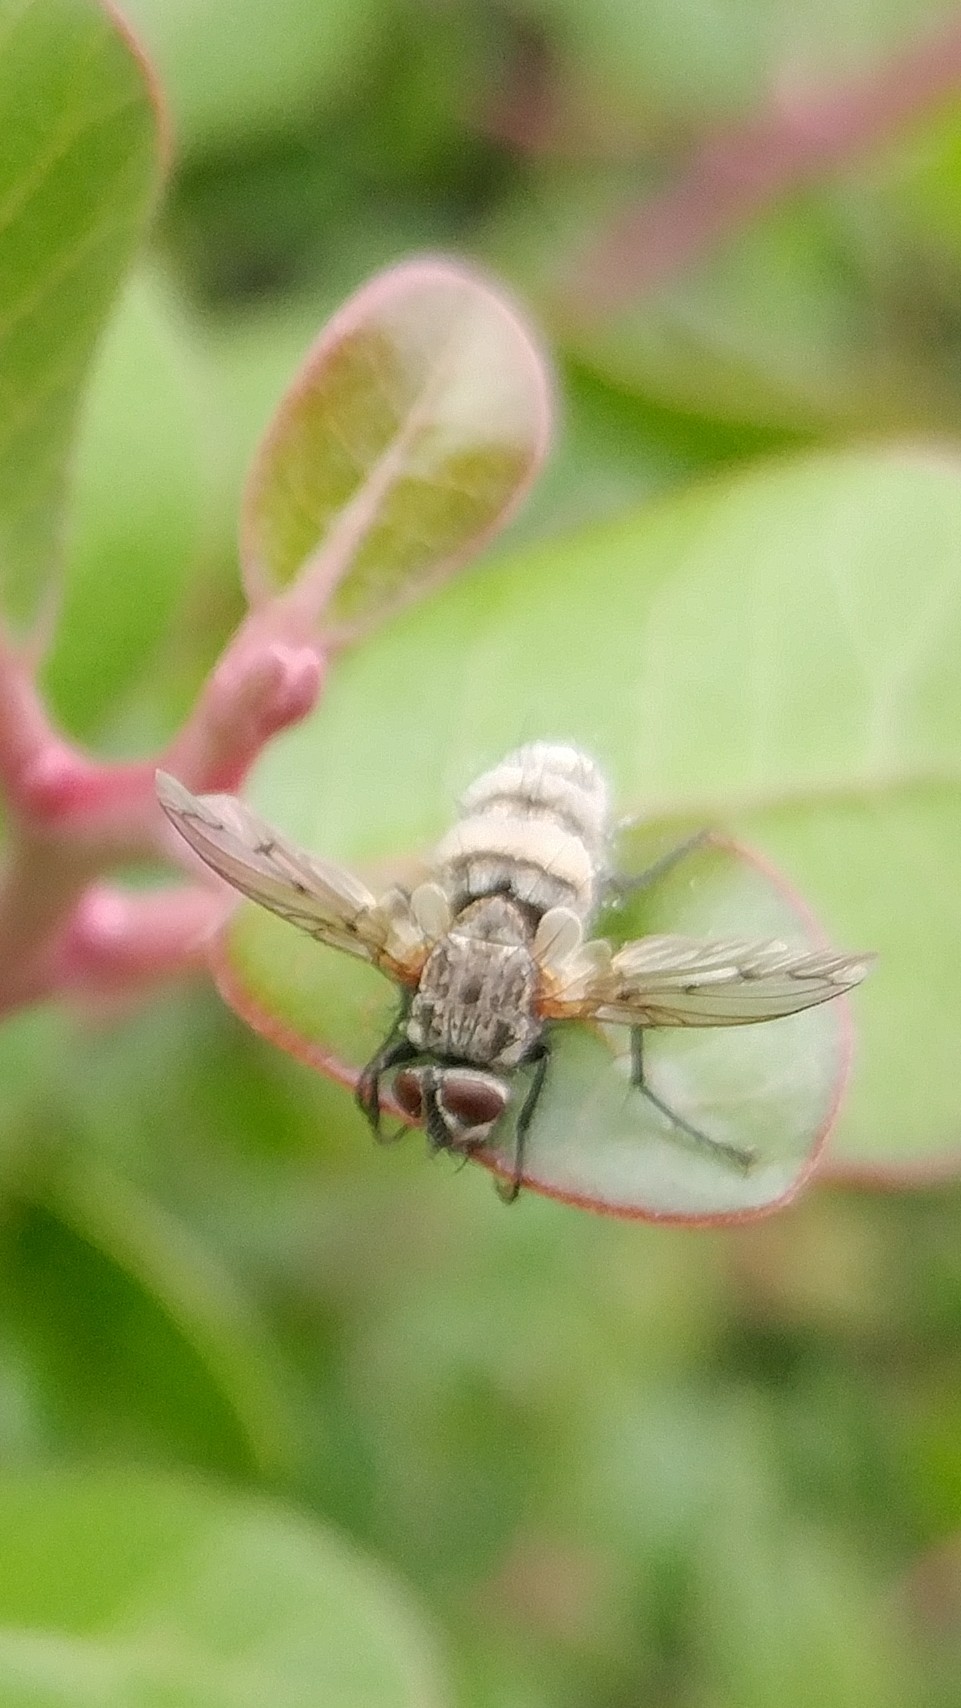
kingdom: Fungi
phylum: Entomophthoromycota
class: Entomophthoromycetes
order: Entomophthorales
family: Entomophthoraceae
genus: Entomophthora
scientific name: Entomophthora
